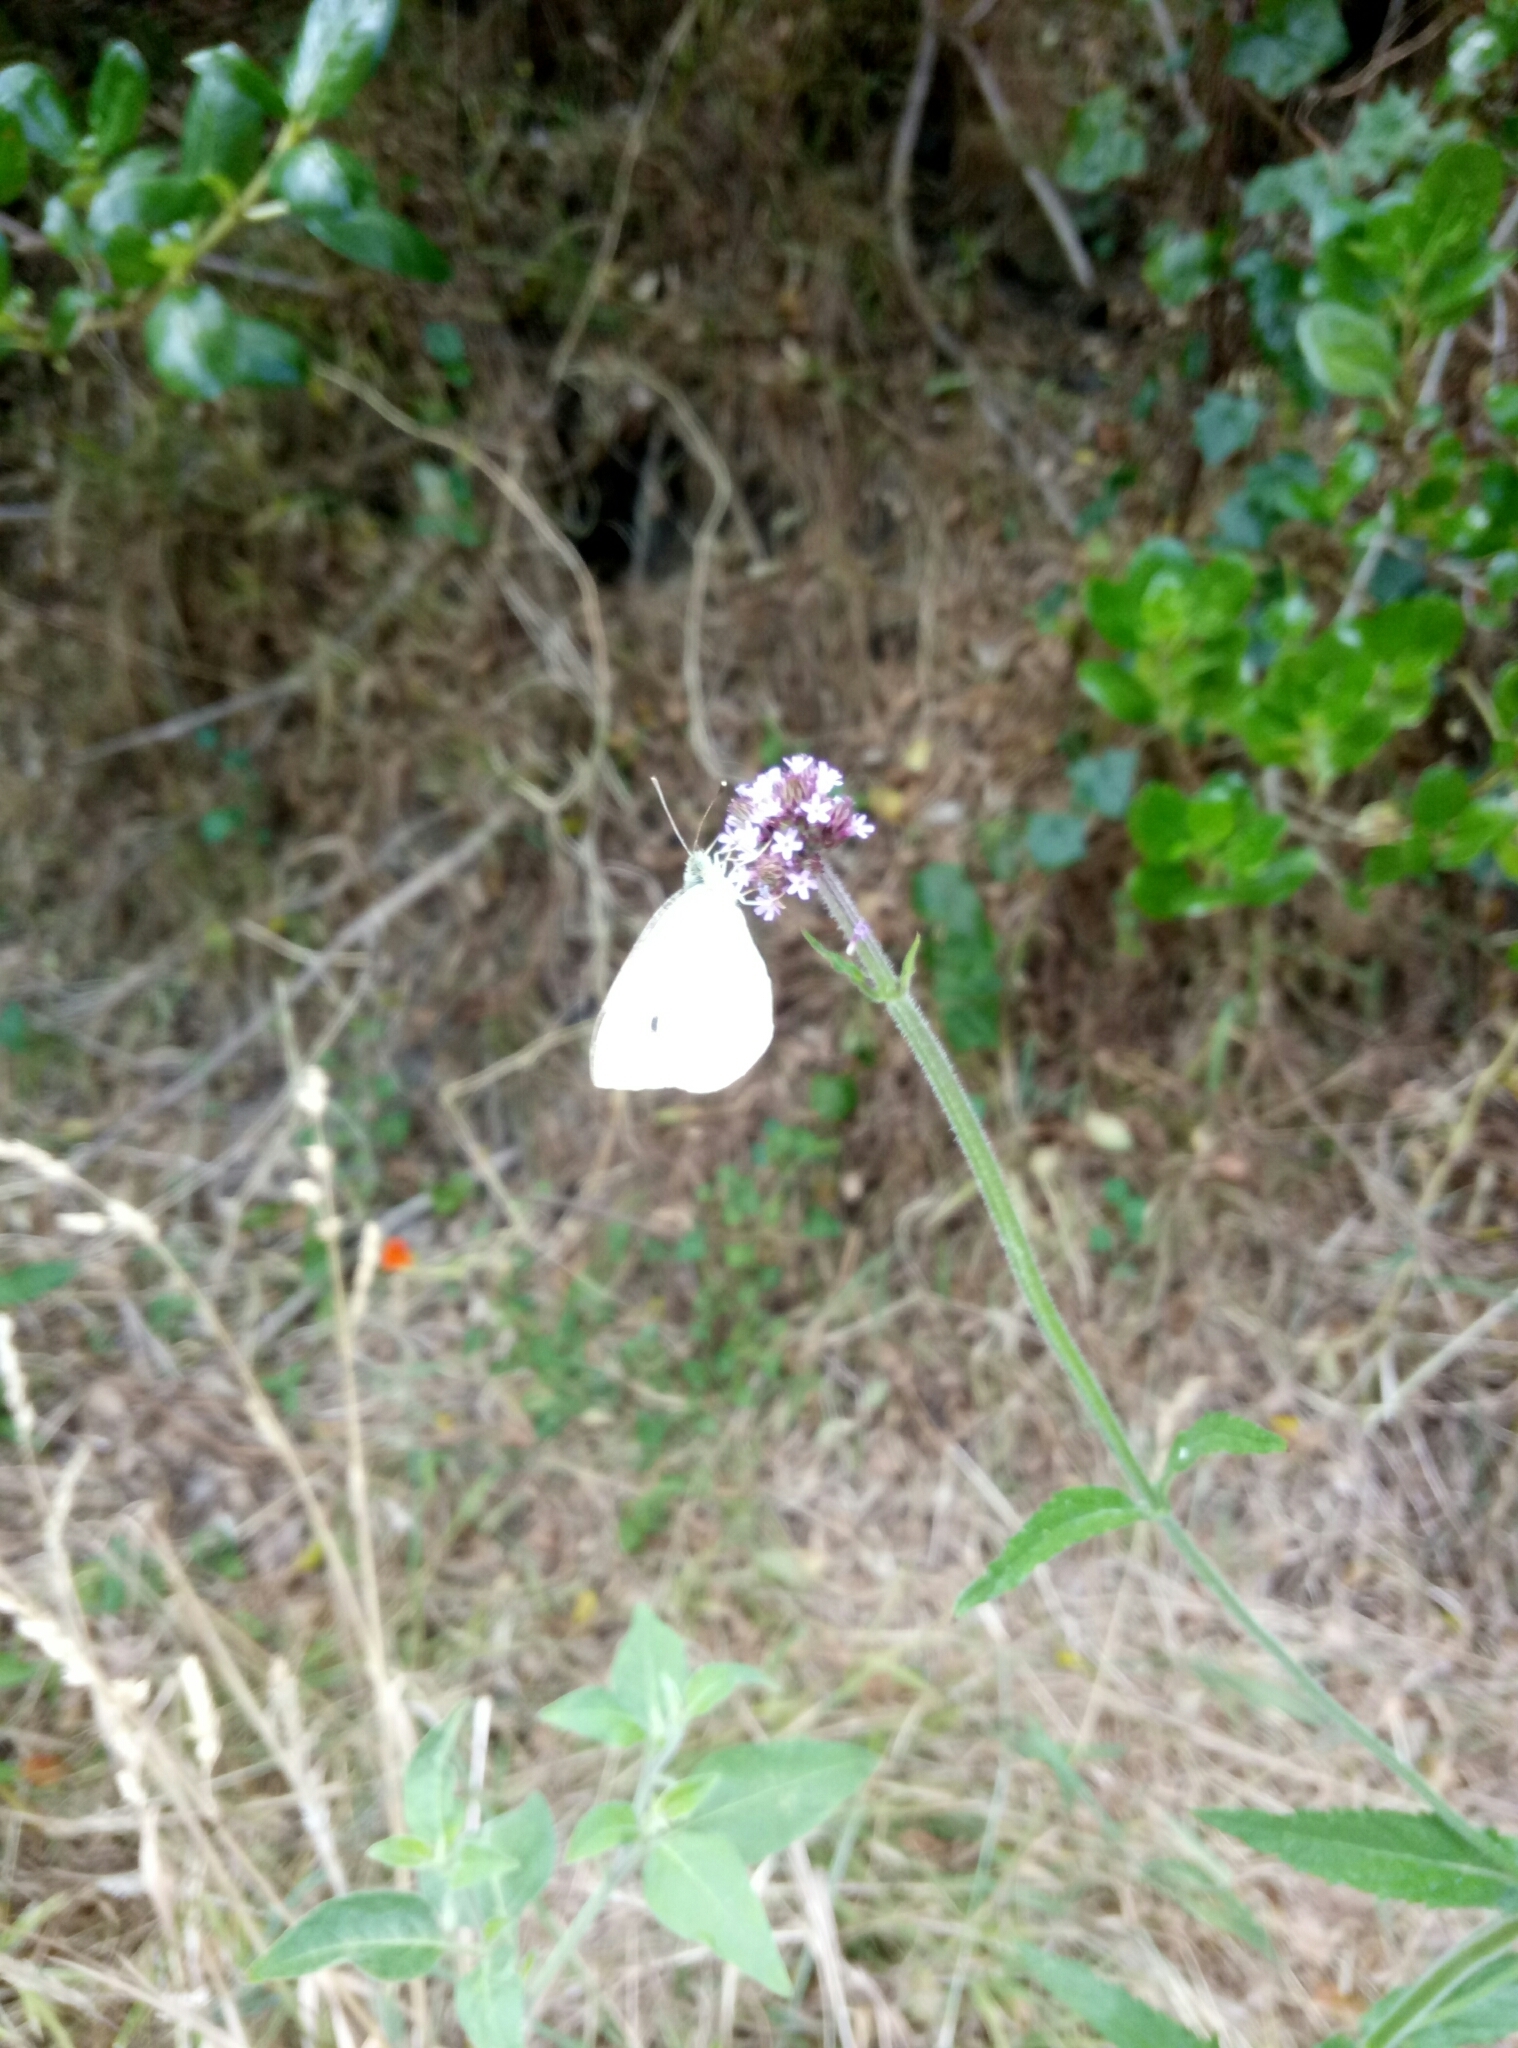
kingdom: Animalia
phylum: Arthropoda
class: Insecta
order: Lepidoptera
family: Pieridae
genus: Pieris
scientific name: Pieris rapae
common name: Small white
